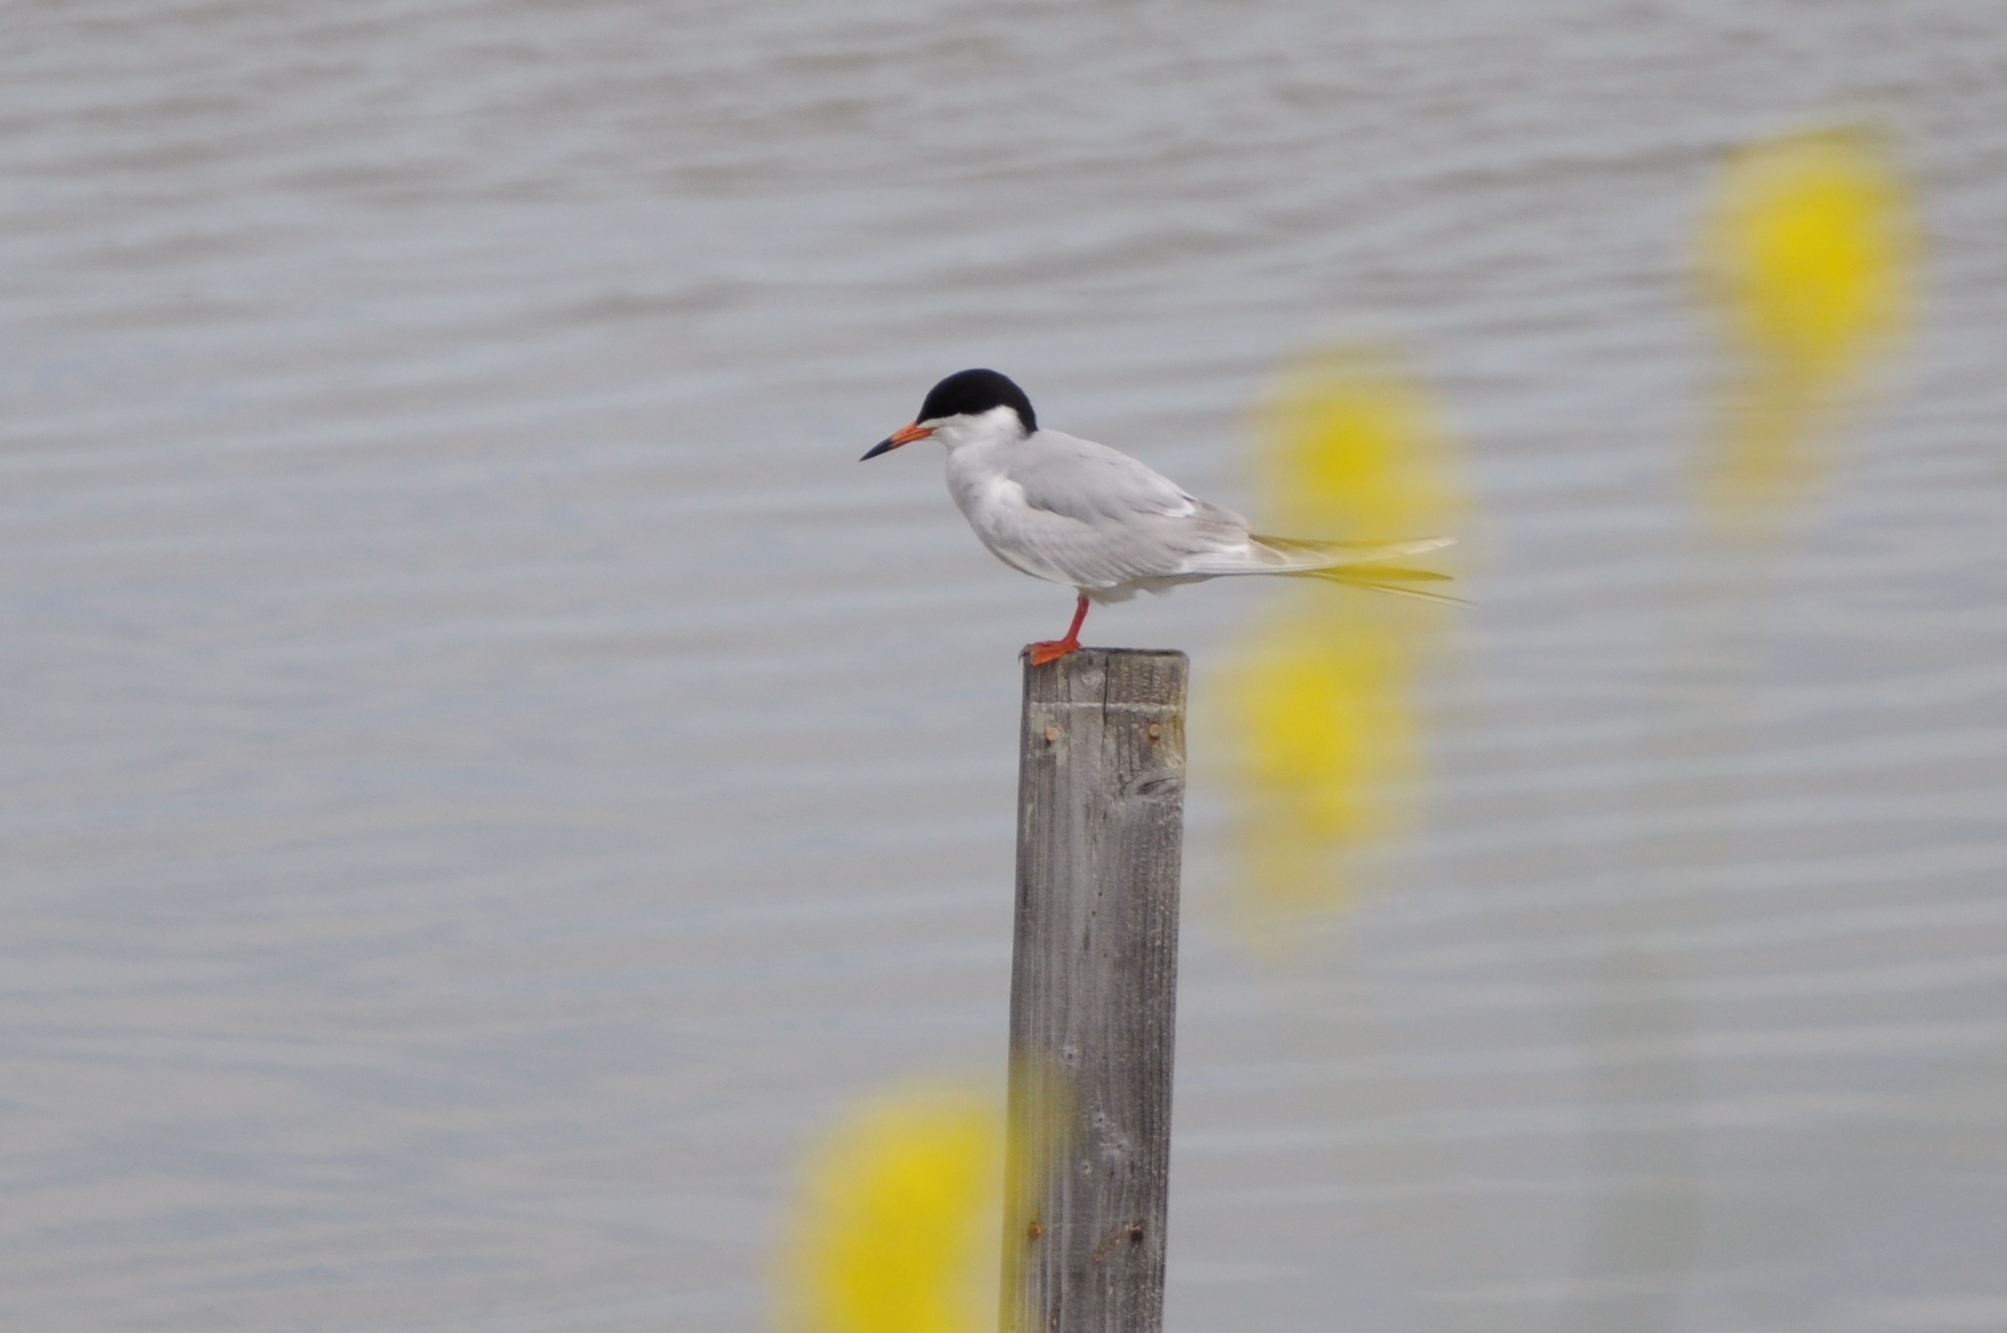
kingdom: Animalia
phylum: Chordata
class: Aves
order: Charadriiformes
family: Laridae
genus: Sterna
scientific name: Sterna forsteri
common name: Forster's tern
